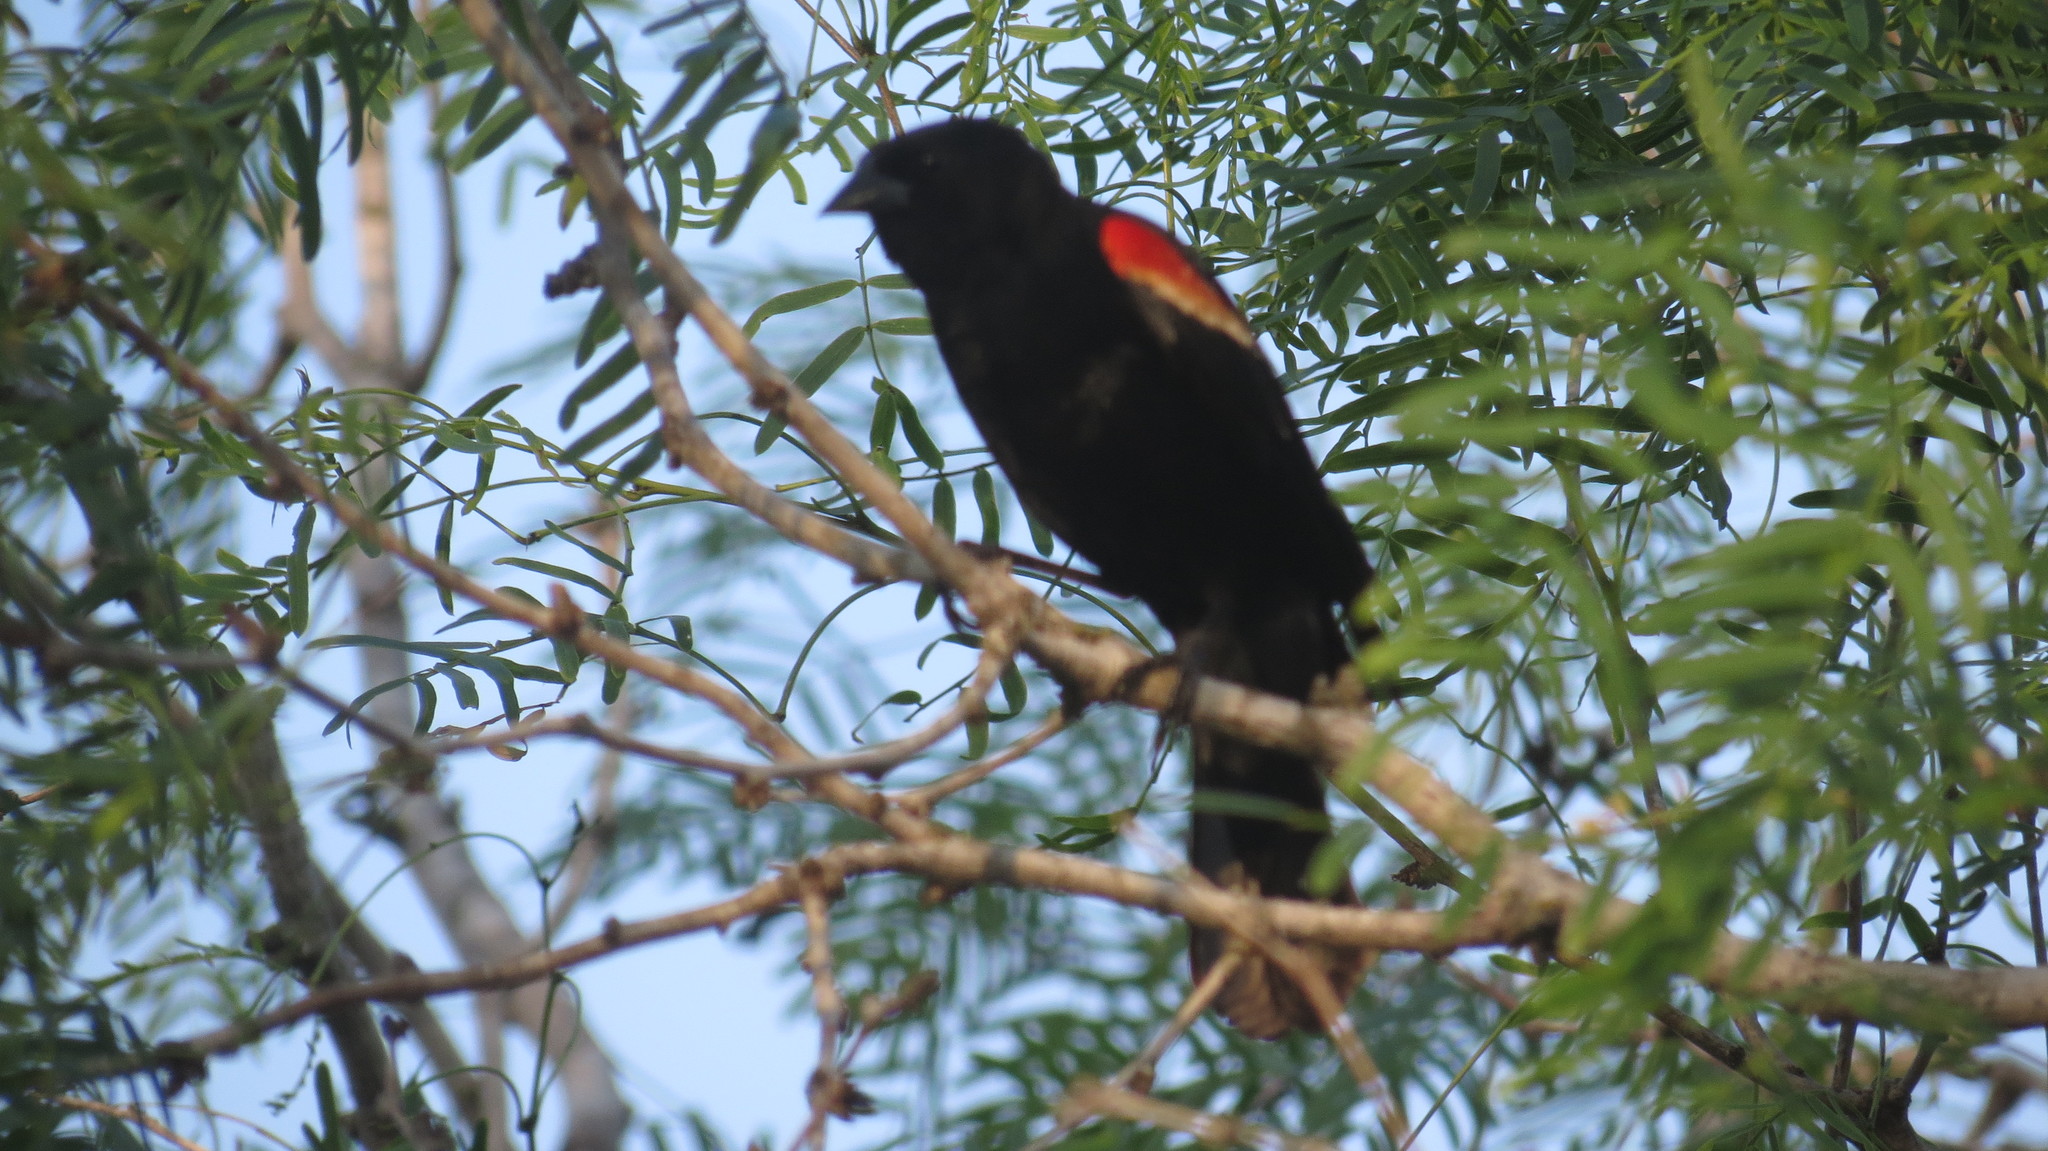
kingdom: Animalia
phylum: Chordata
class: Aves
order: Passeriformes
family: Icteridae
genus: Agelaius
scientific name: Agelaius phoeniceus
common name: Red-winged blackbird
